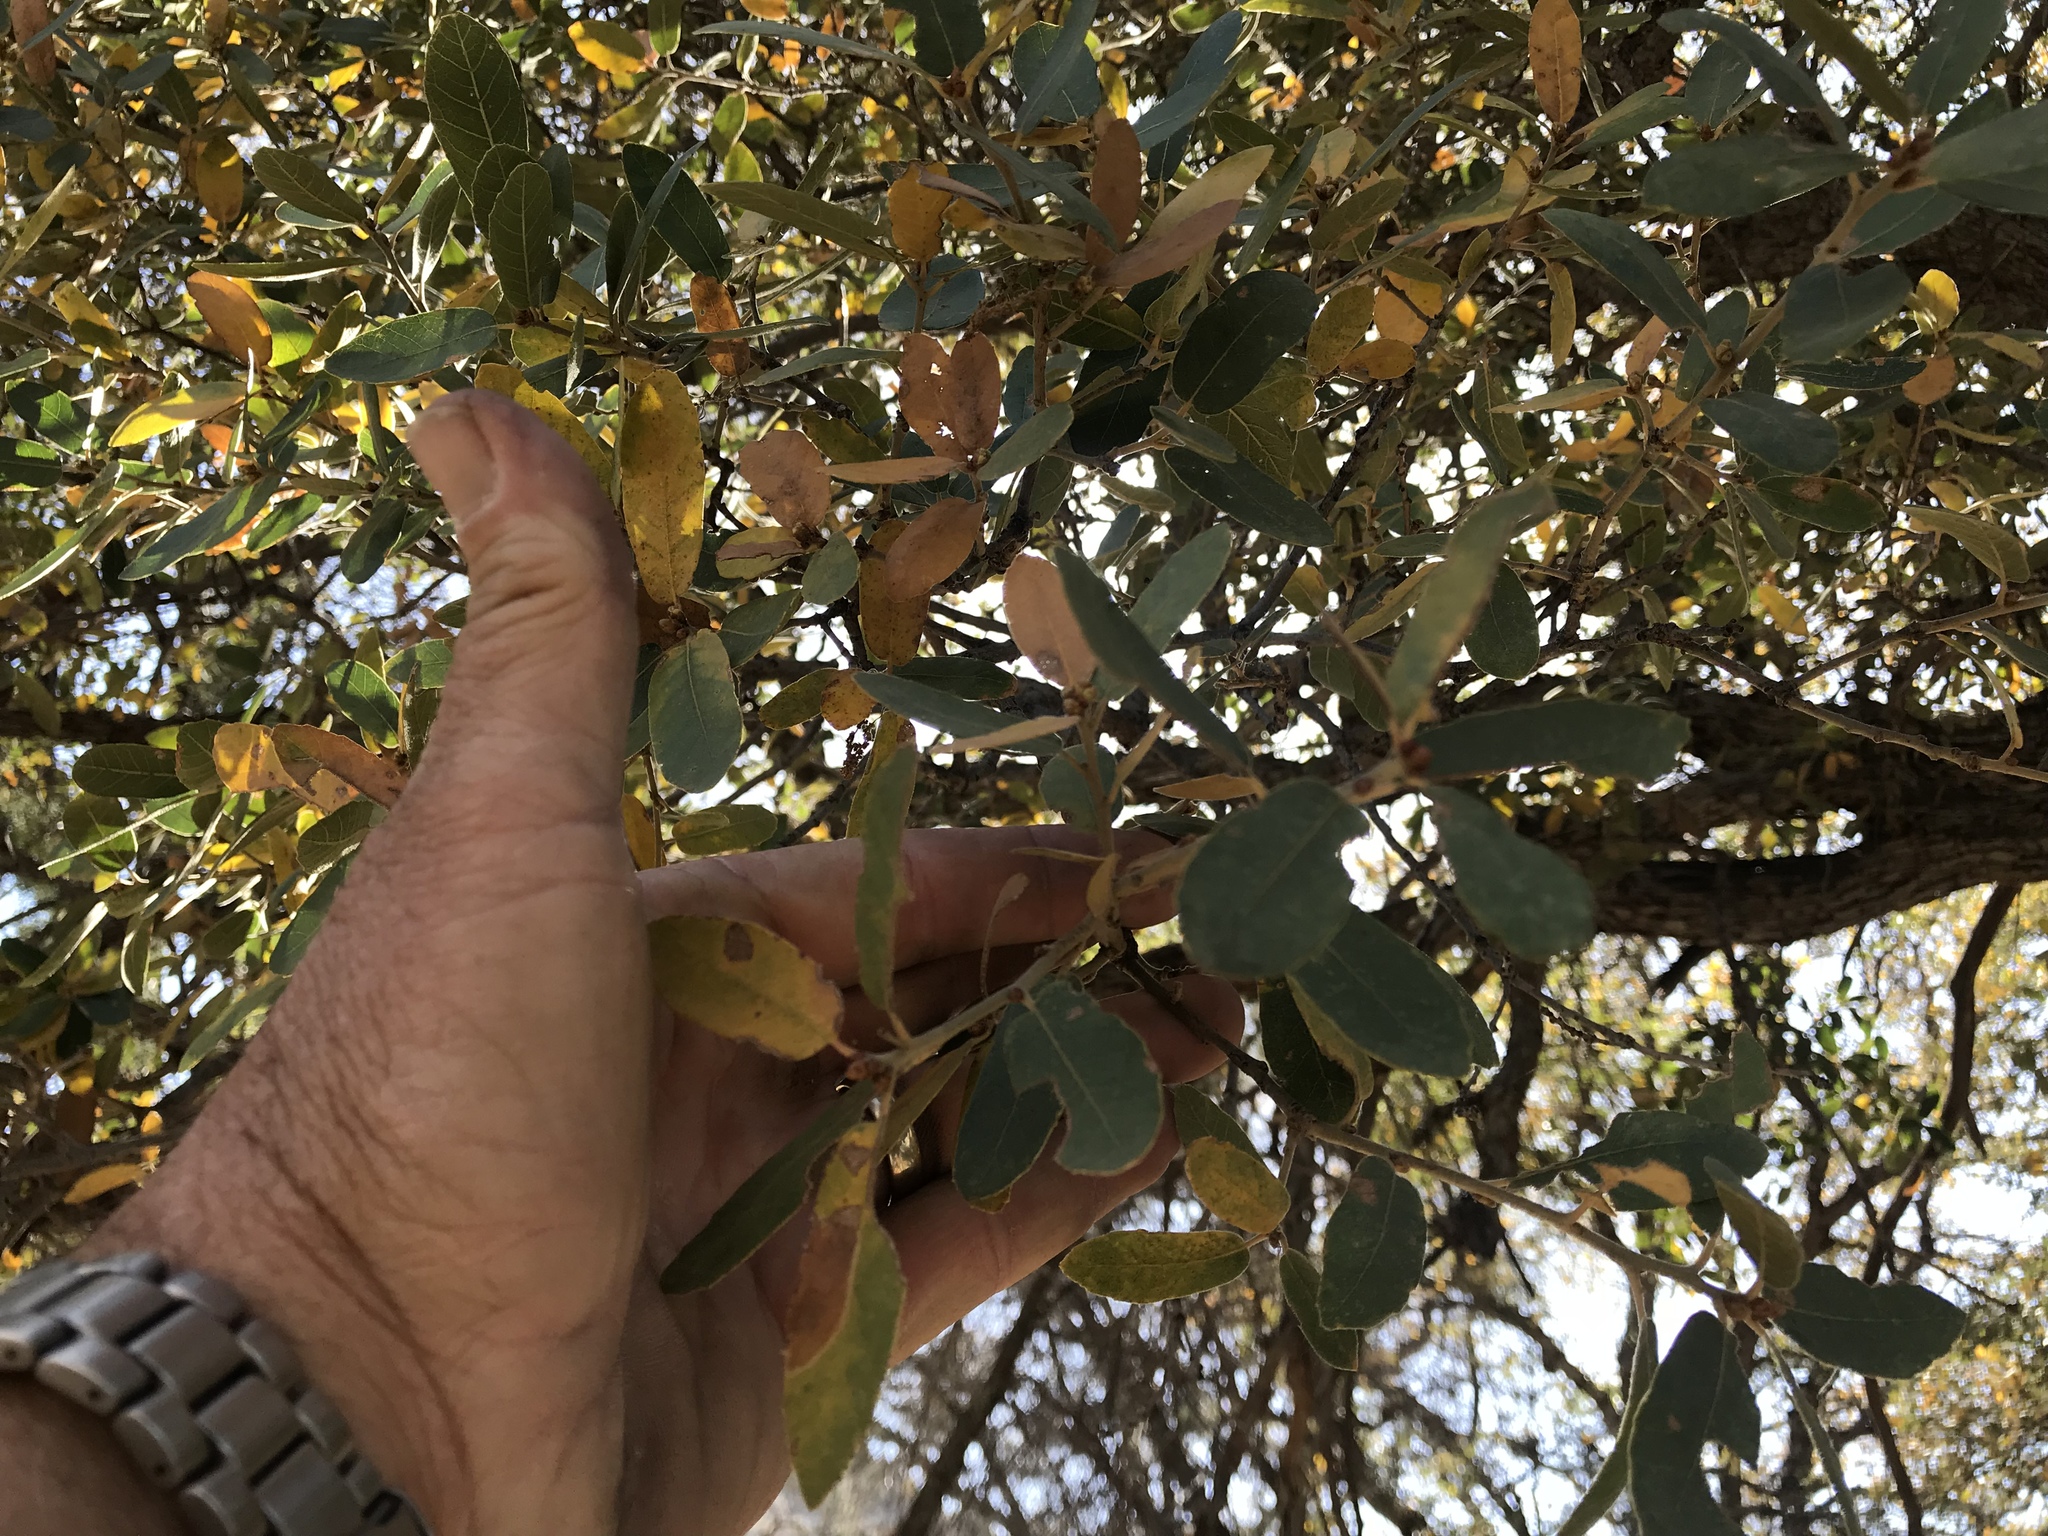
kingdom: Plantae
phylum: Tracheophyta
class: Magnoliopsida
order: Fagales
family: Fagaceae
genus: Quercus
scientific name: Quercus arizonica
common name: Arizona white oak
